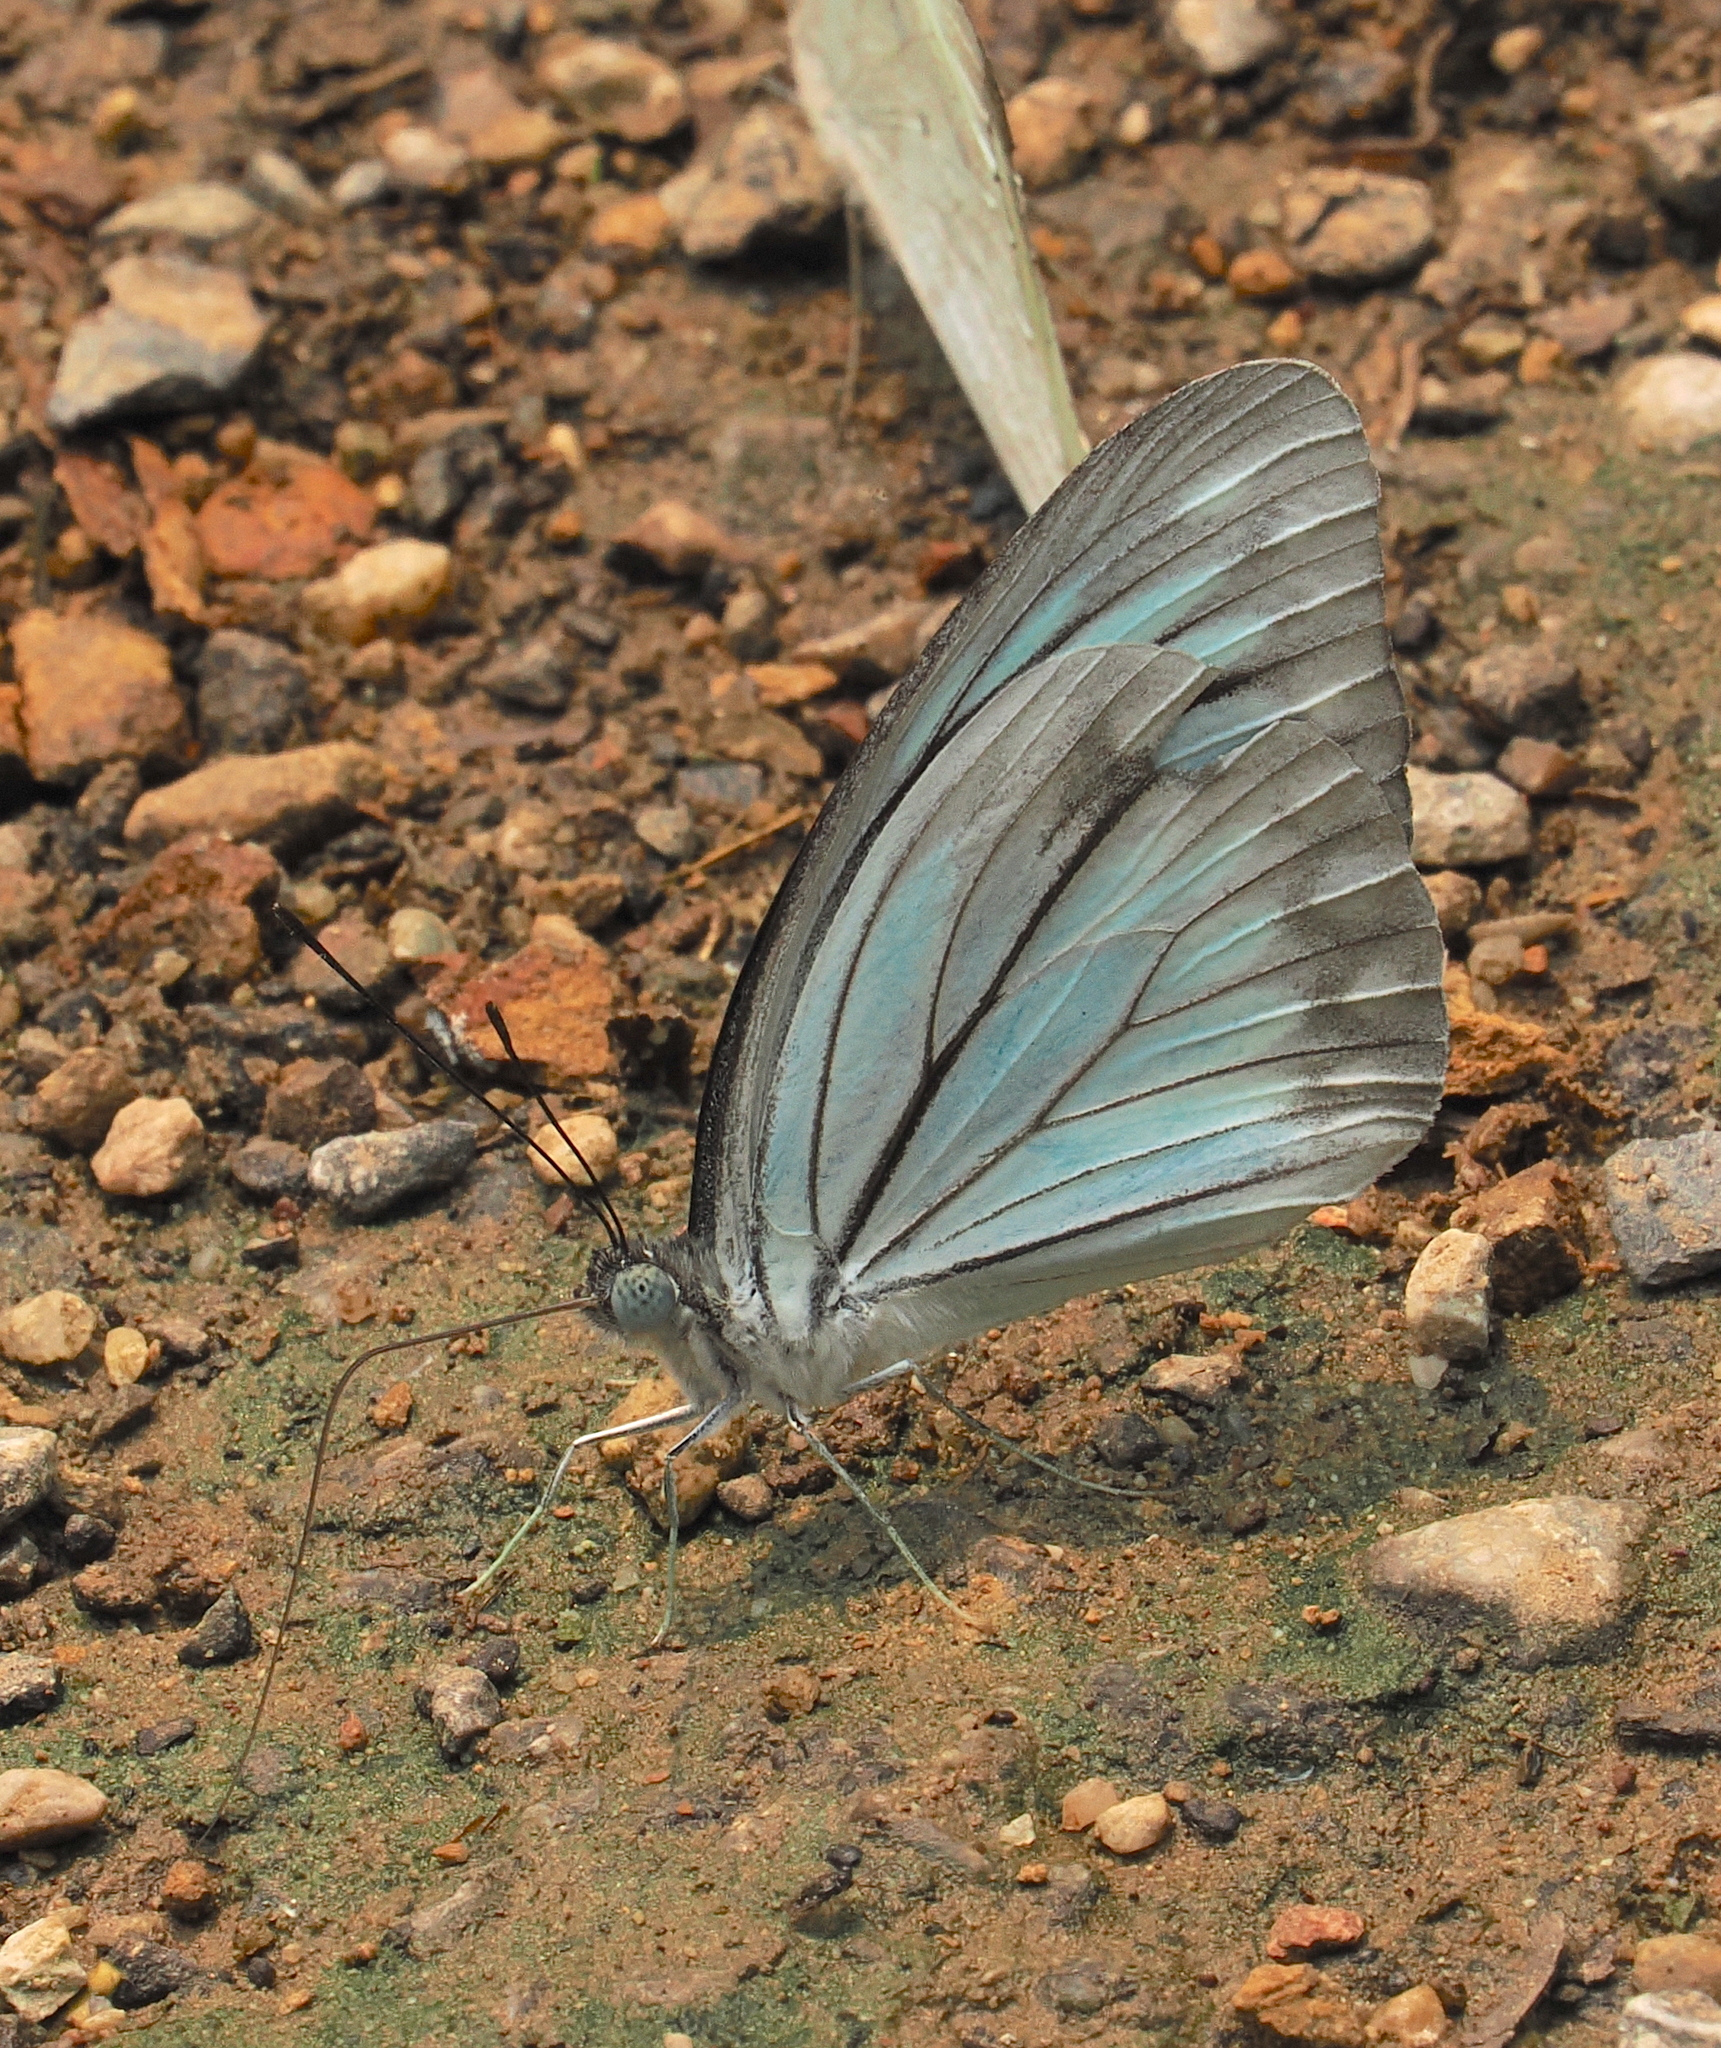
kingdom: Animalia
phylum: Arthropoda
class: Insecta
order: Lepidoptera
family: Pieridae
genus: Pareronia
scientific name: Pareronia hippia
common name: Indian wanderer
